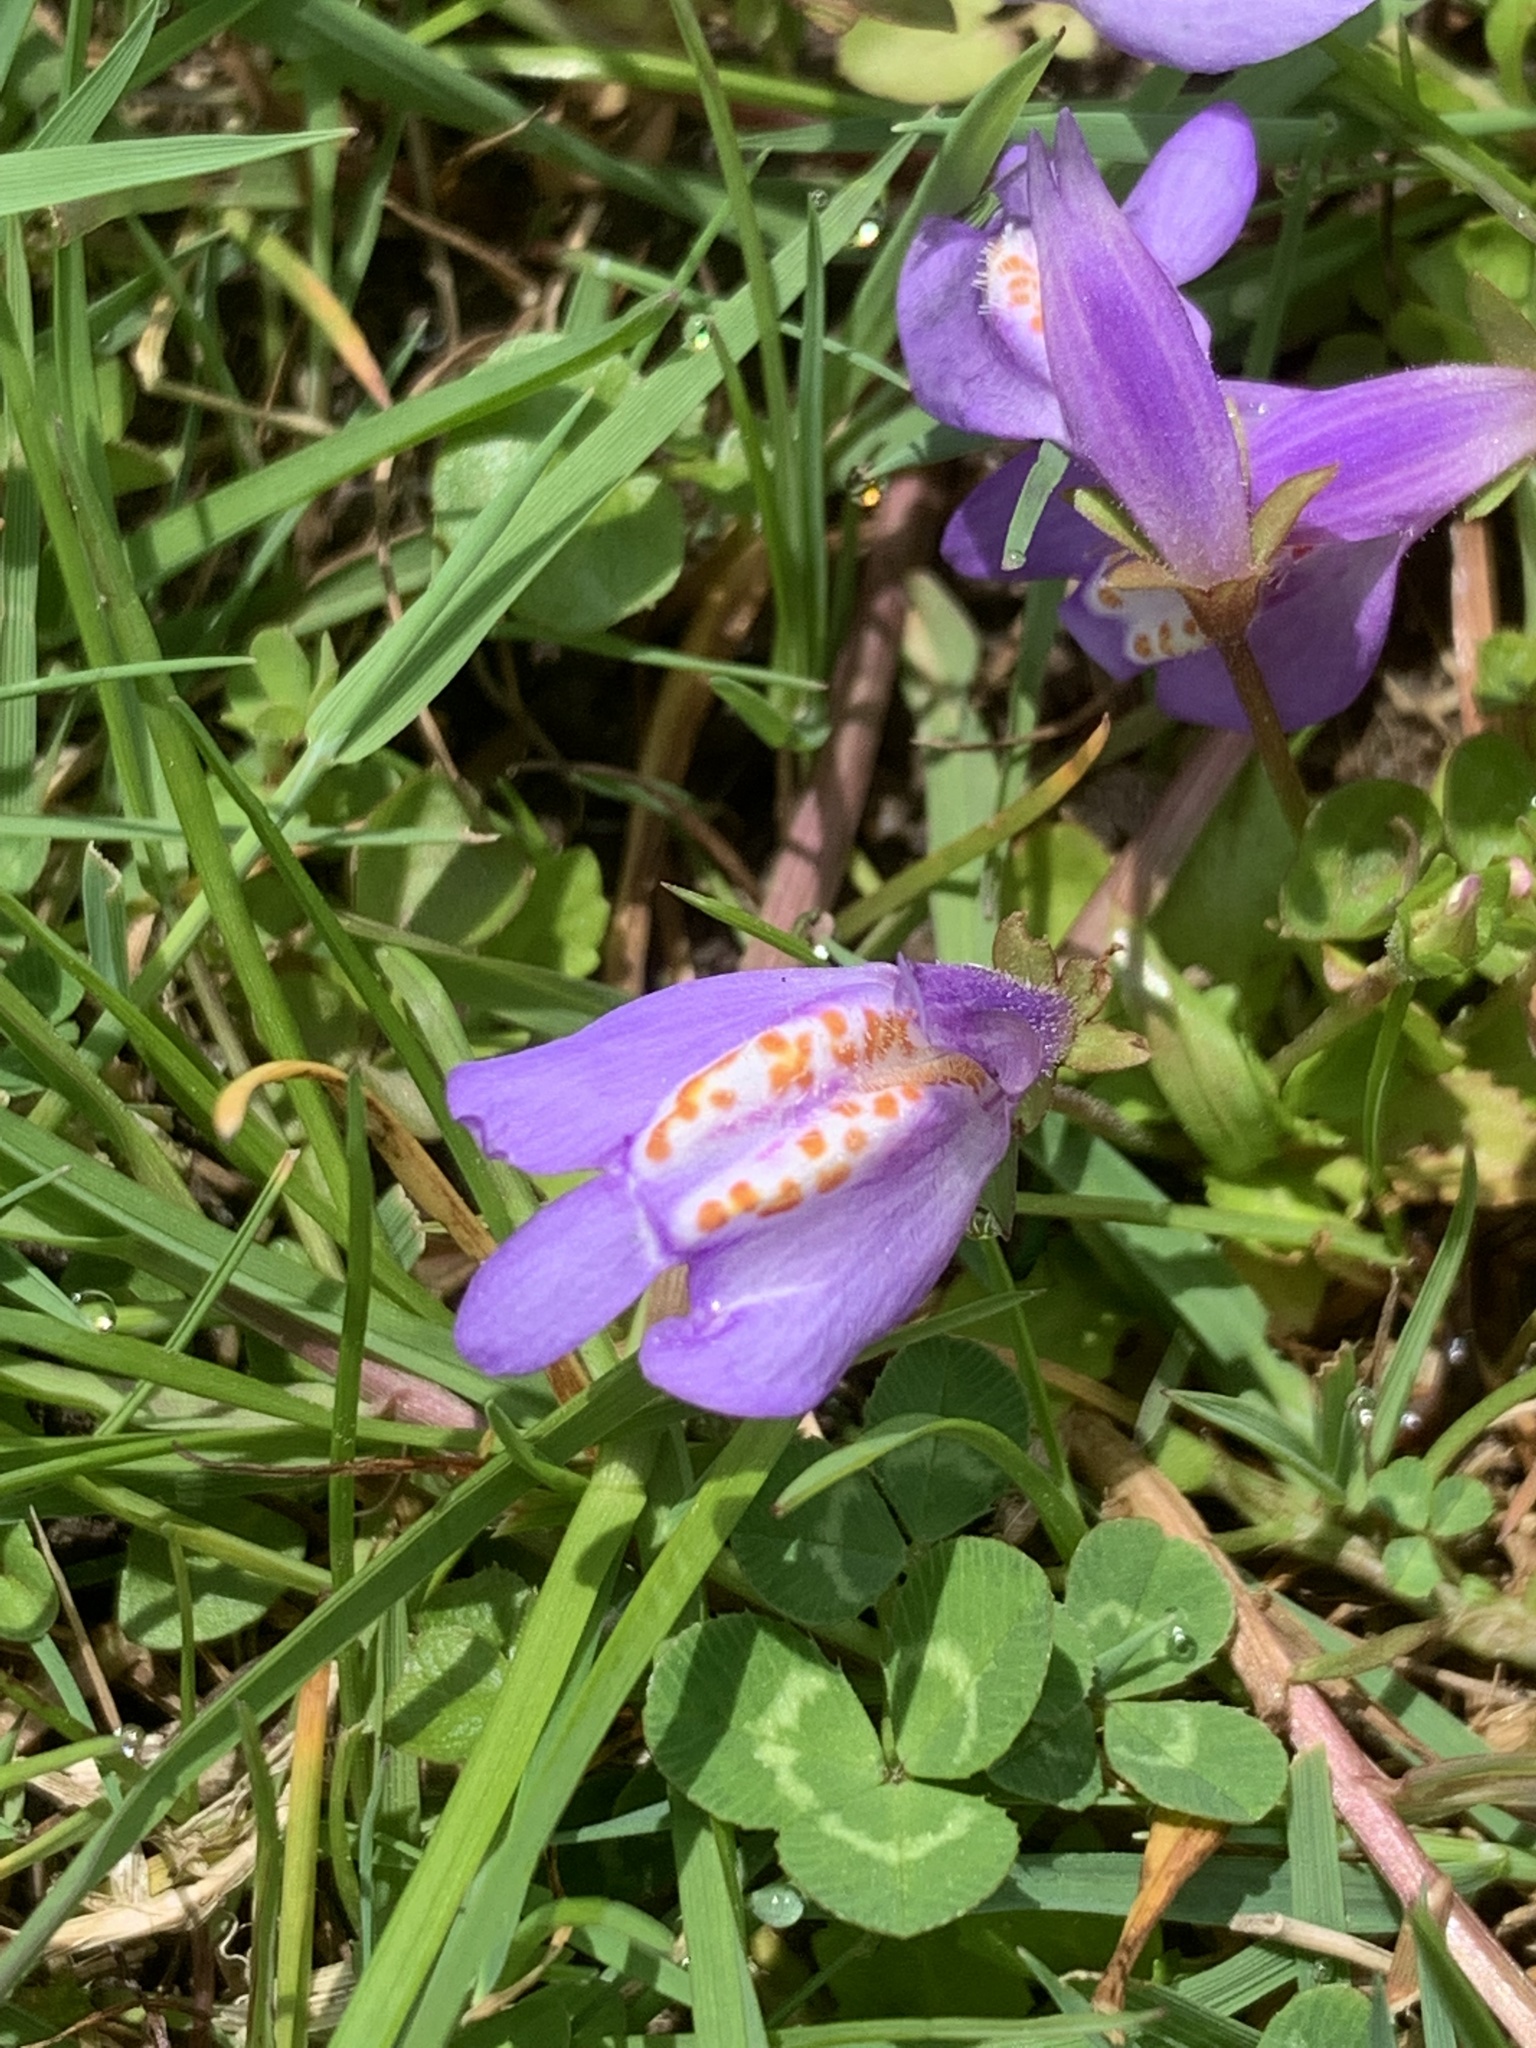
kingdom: Plantae
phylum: Tracheophyta
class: Magnoliopsida
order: Lamiales
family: Mazaceae
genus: Mazus
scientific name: Mazus miquelii
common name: Miquel's mazus
